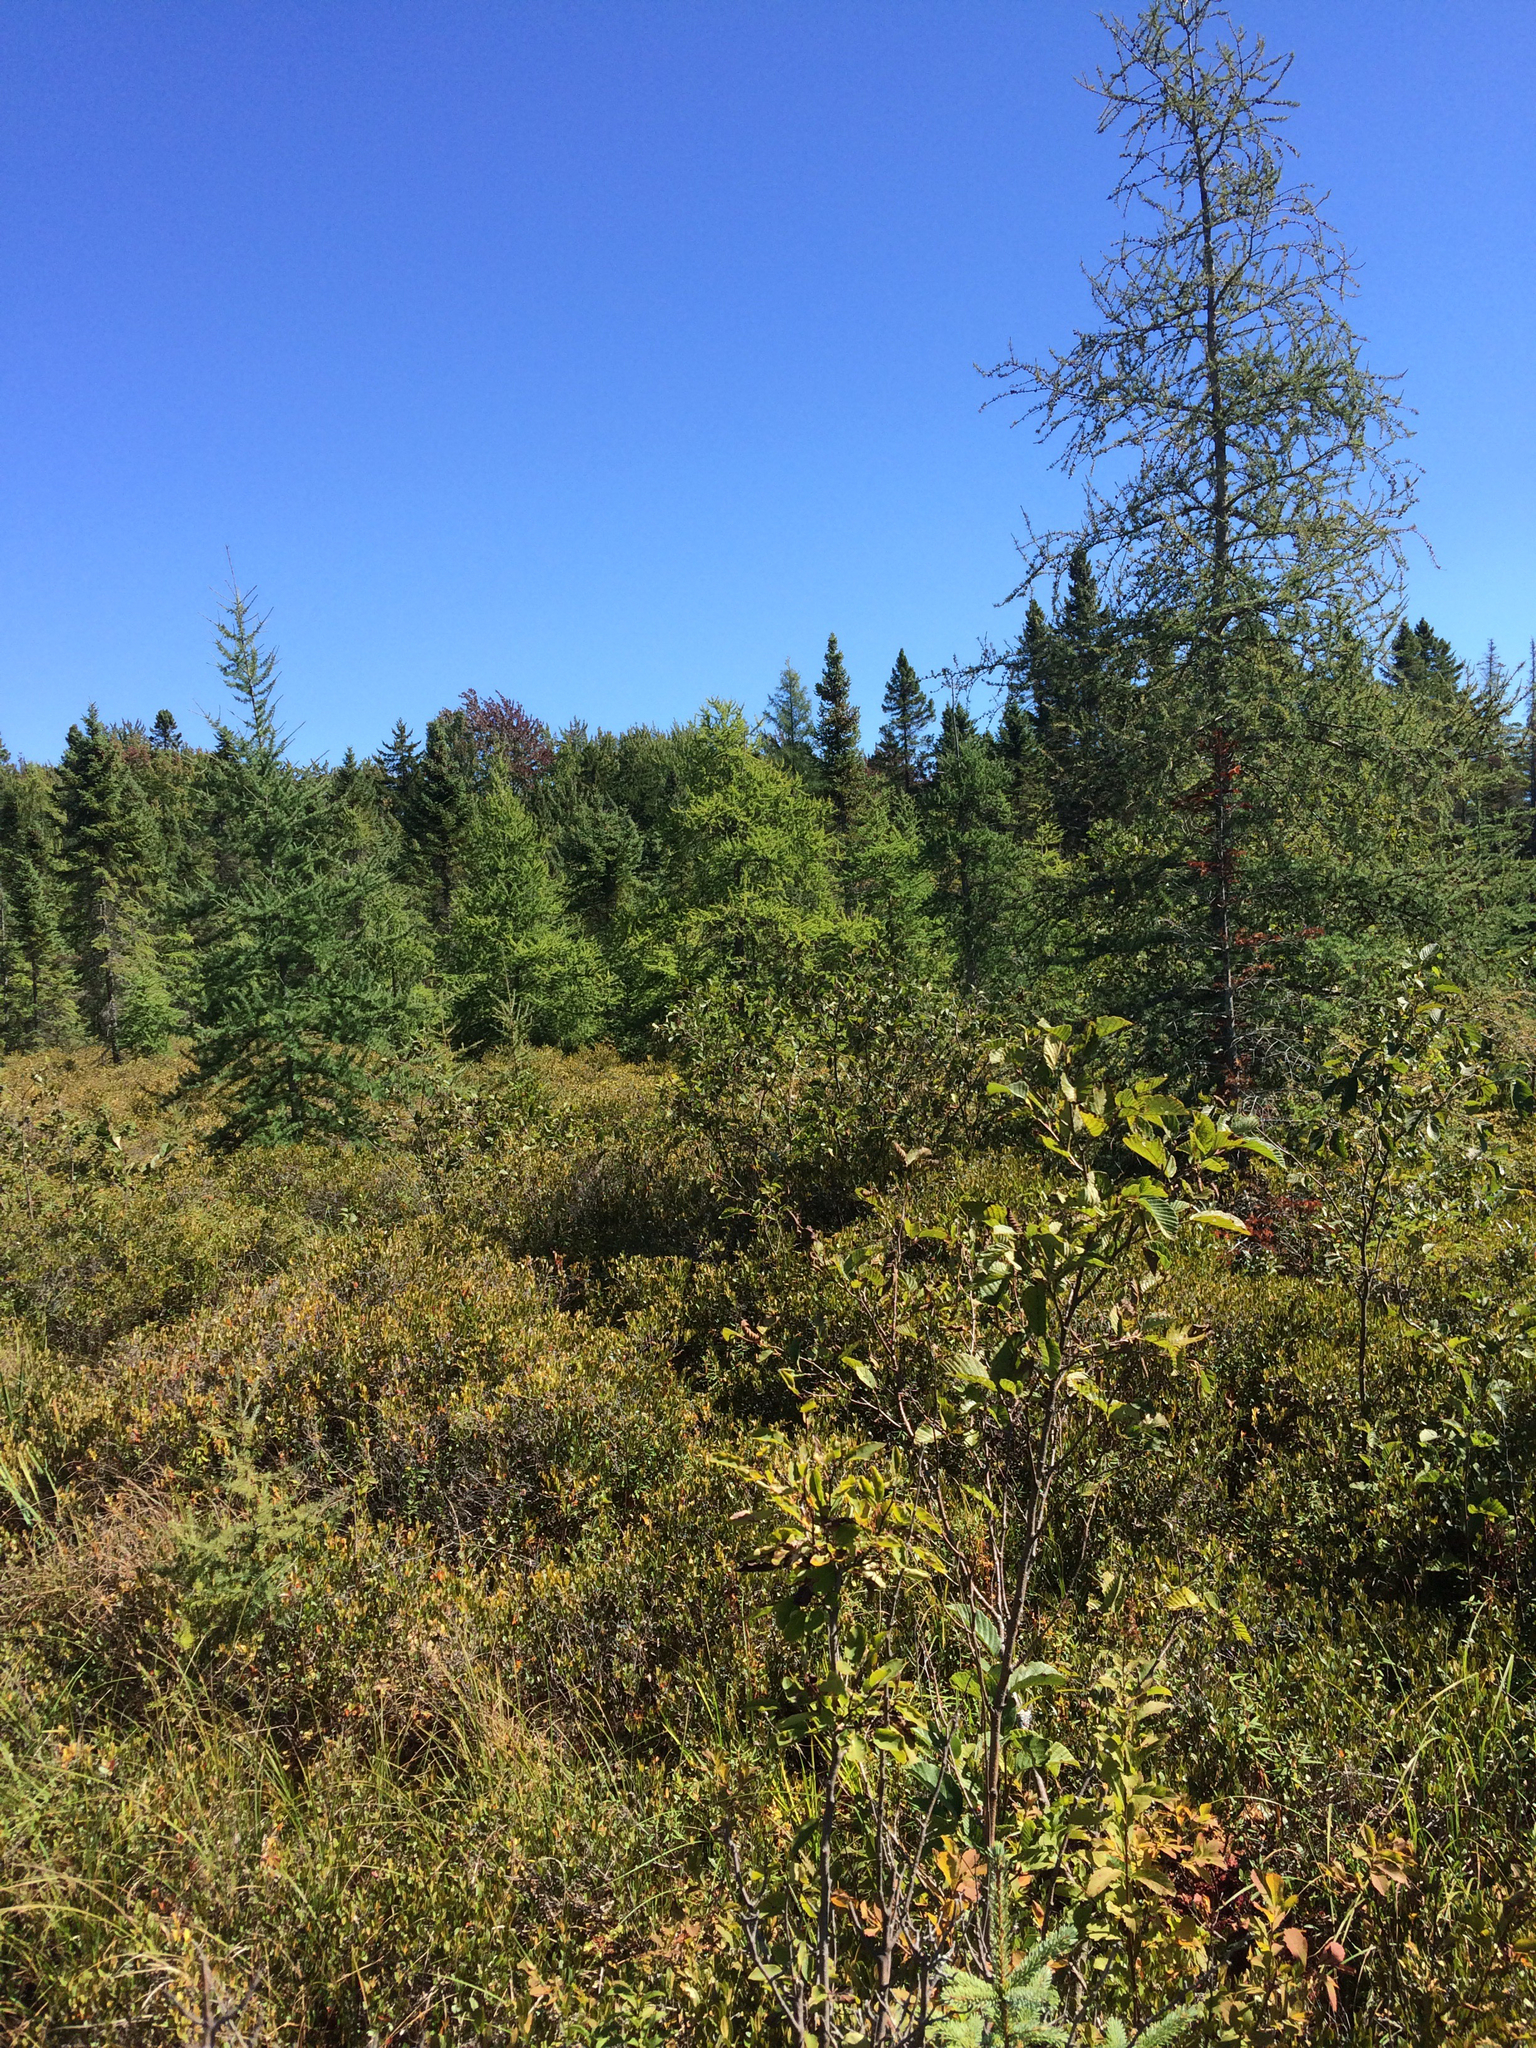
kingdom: Plantae
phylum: Tracheophyta
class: Pinopsida
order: Pinales
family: Pinaceae
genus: Larix
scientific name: Larix laricina
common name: American larch
